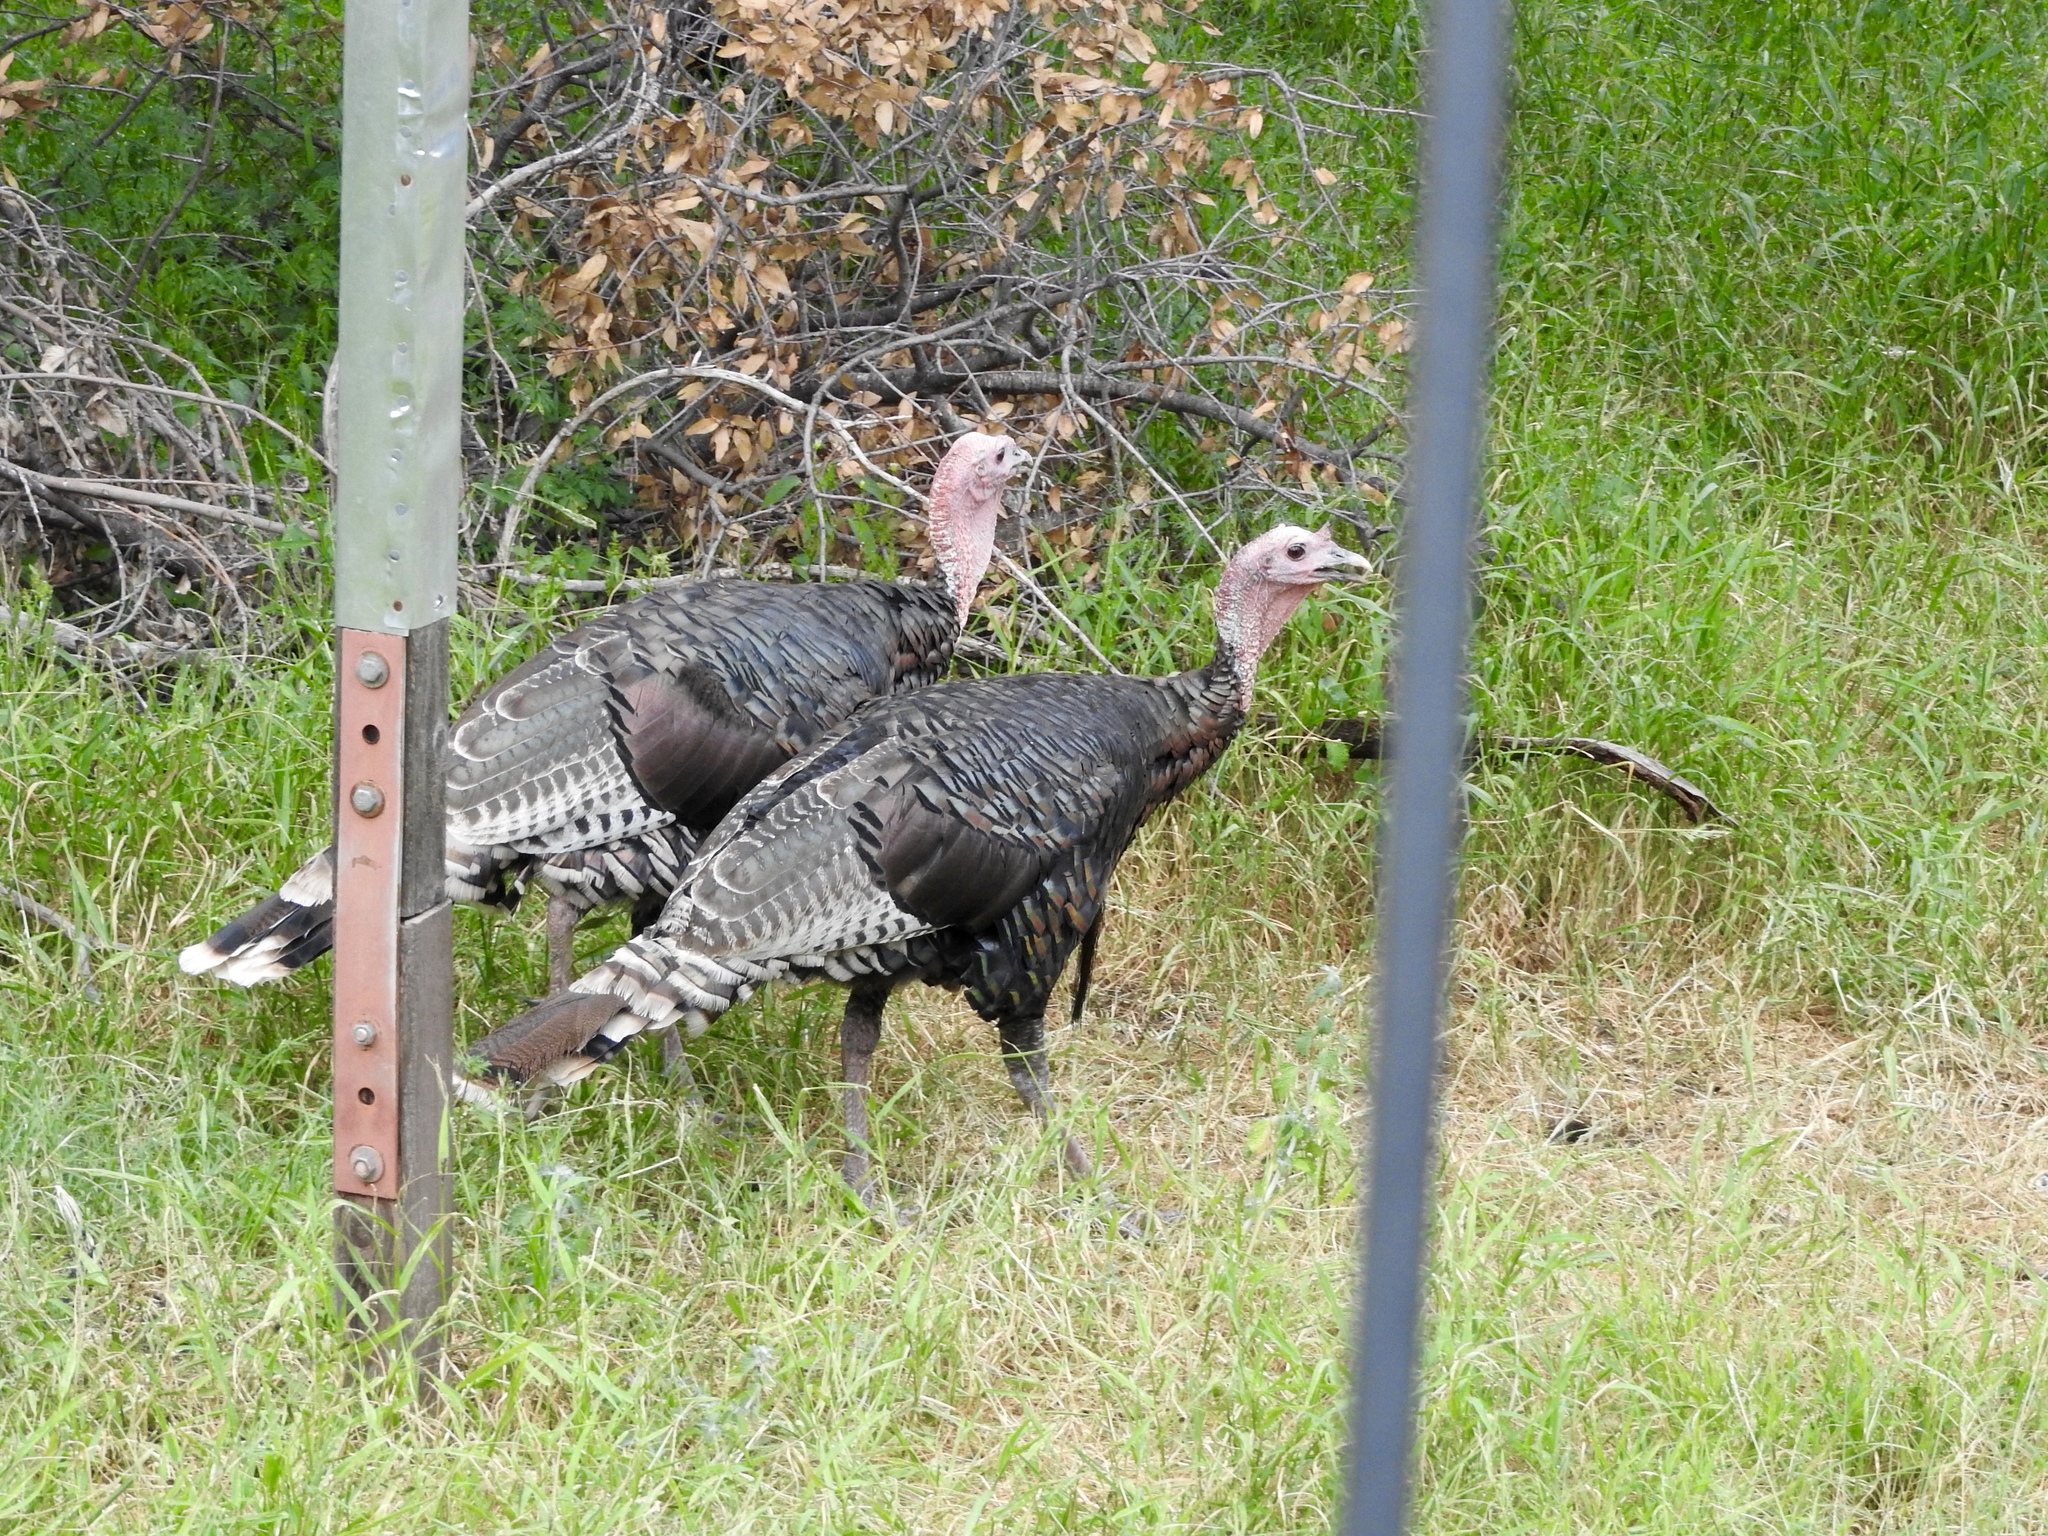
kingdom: Animalia
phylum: Chordata
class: Aves
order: Galliformes
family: Phasianidae
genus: Meleagris
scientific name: Meleagris gallopavo
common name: Wild turkey
